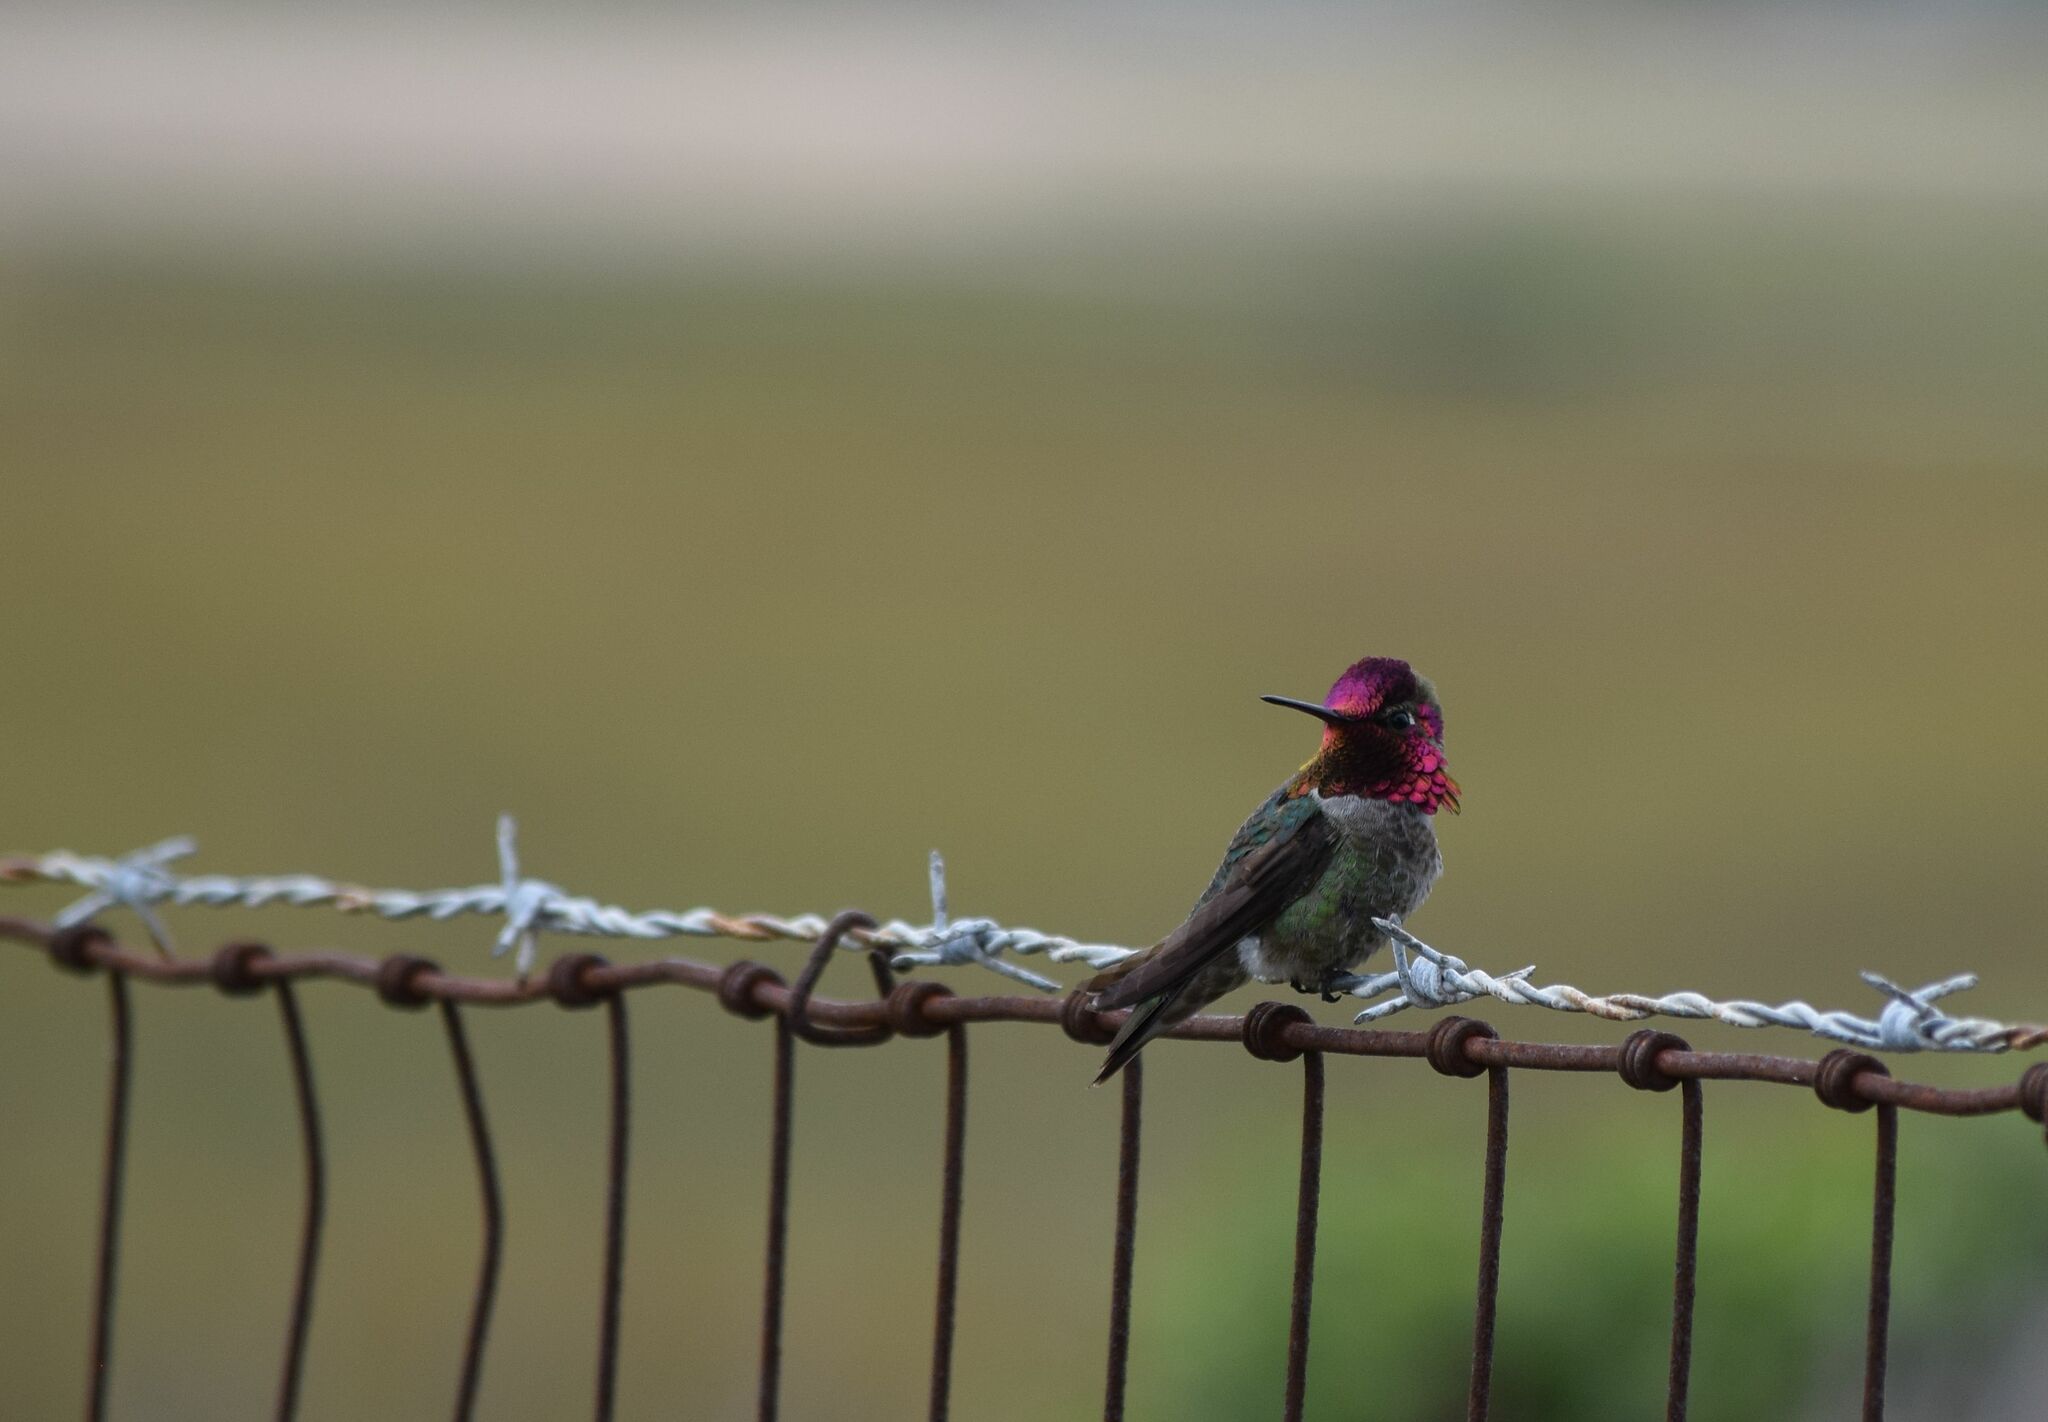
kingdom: Animalia
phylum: Chordata
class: Aves
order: Apodiformes
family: Trochilidae
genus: Calypte
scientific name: Calypte anna
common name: Anna's hummingbird
